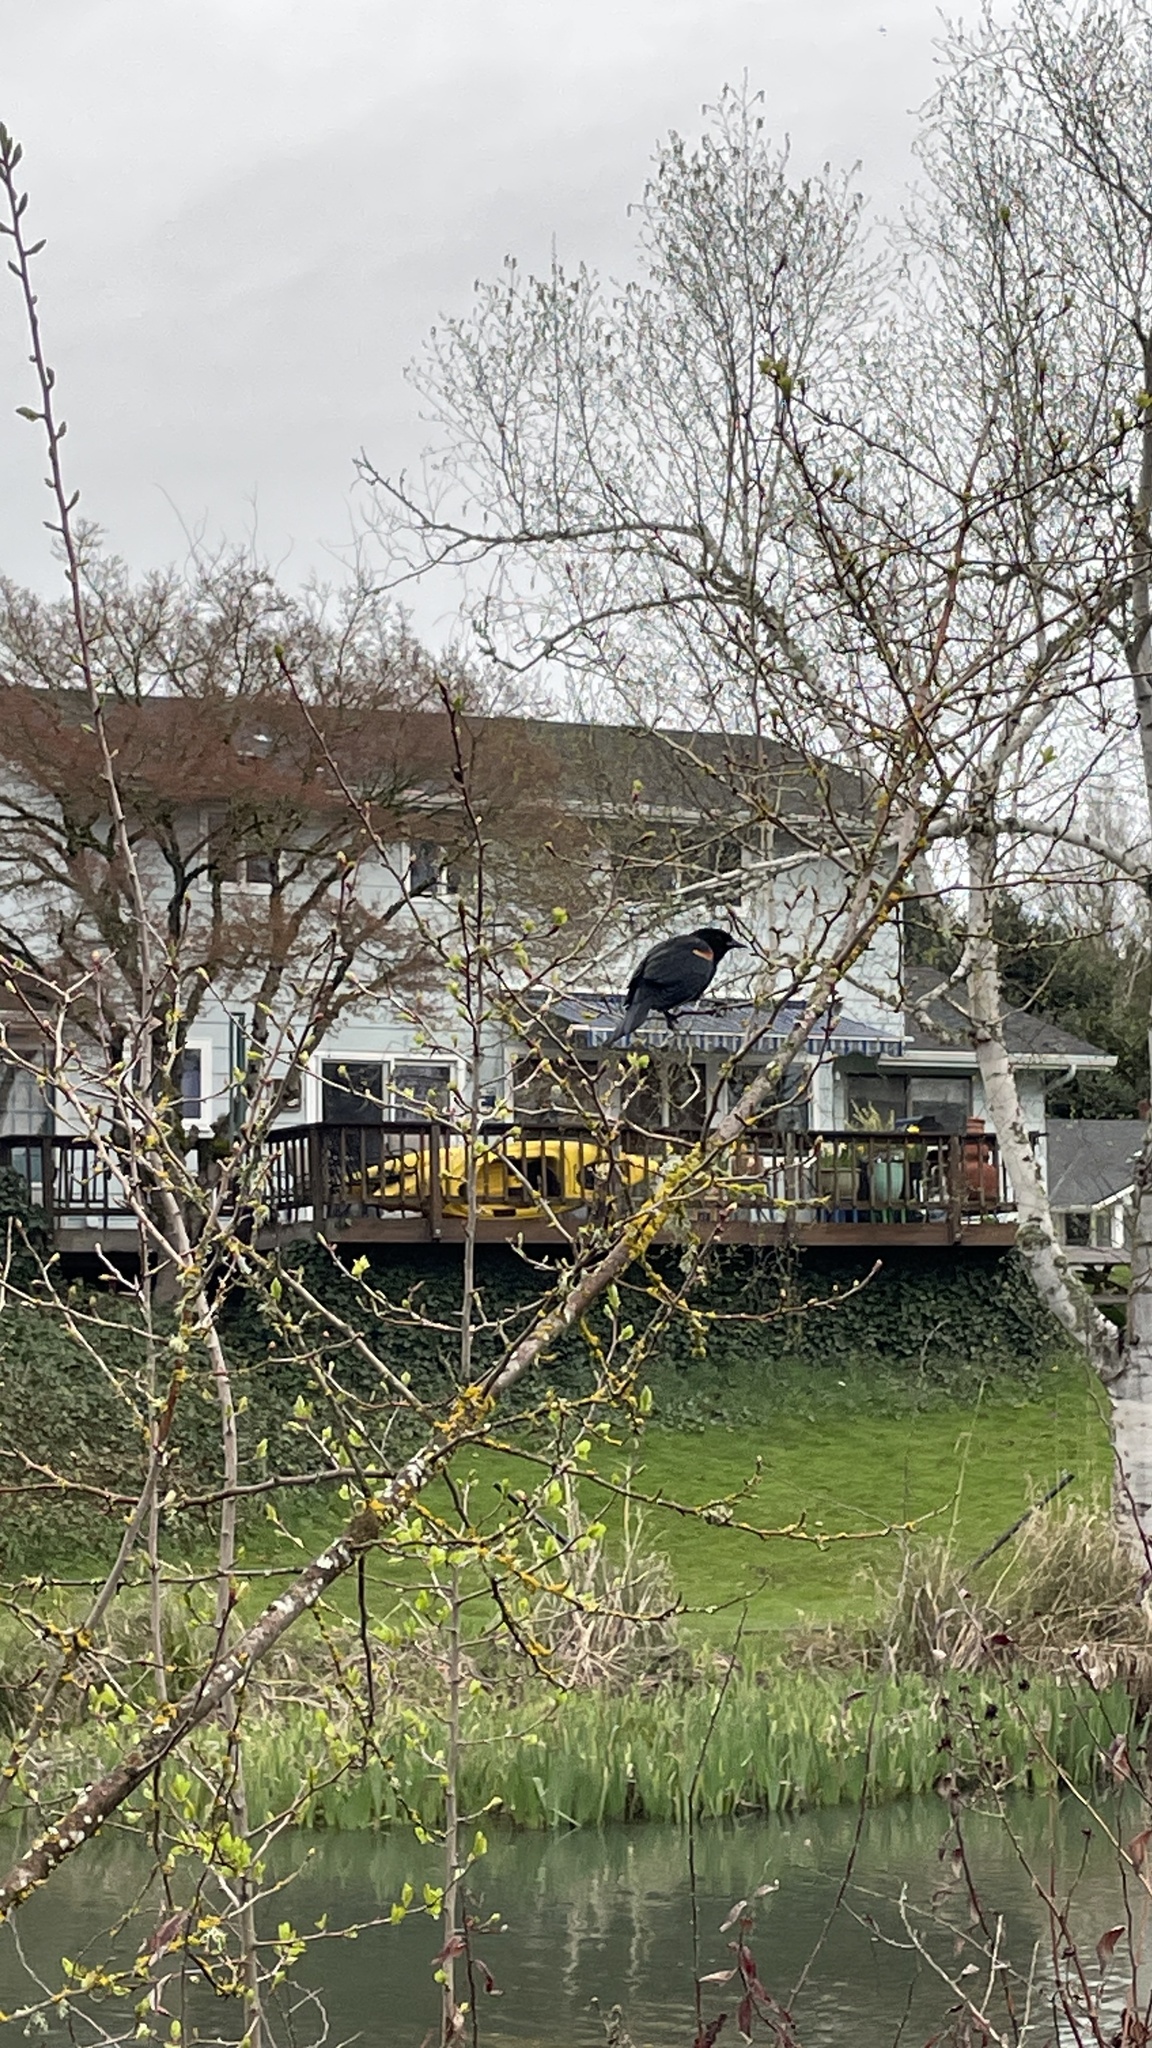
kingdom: Animalia
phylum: Chordata
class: Aves
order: Passeriformes
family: Icteridae
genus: Agelaius
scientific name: Agelaius phoeniceus
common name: Red-winged blackbird
